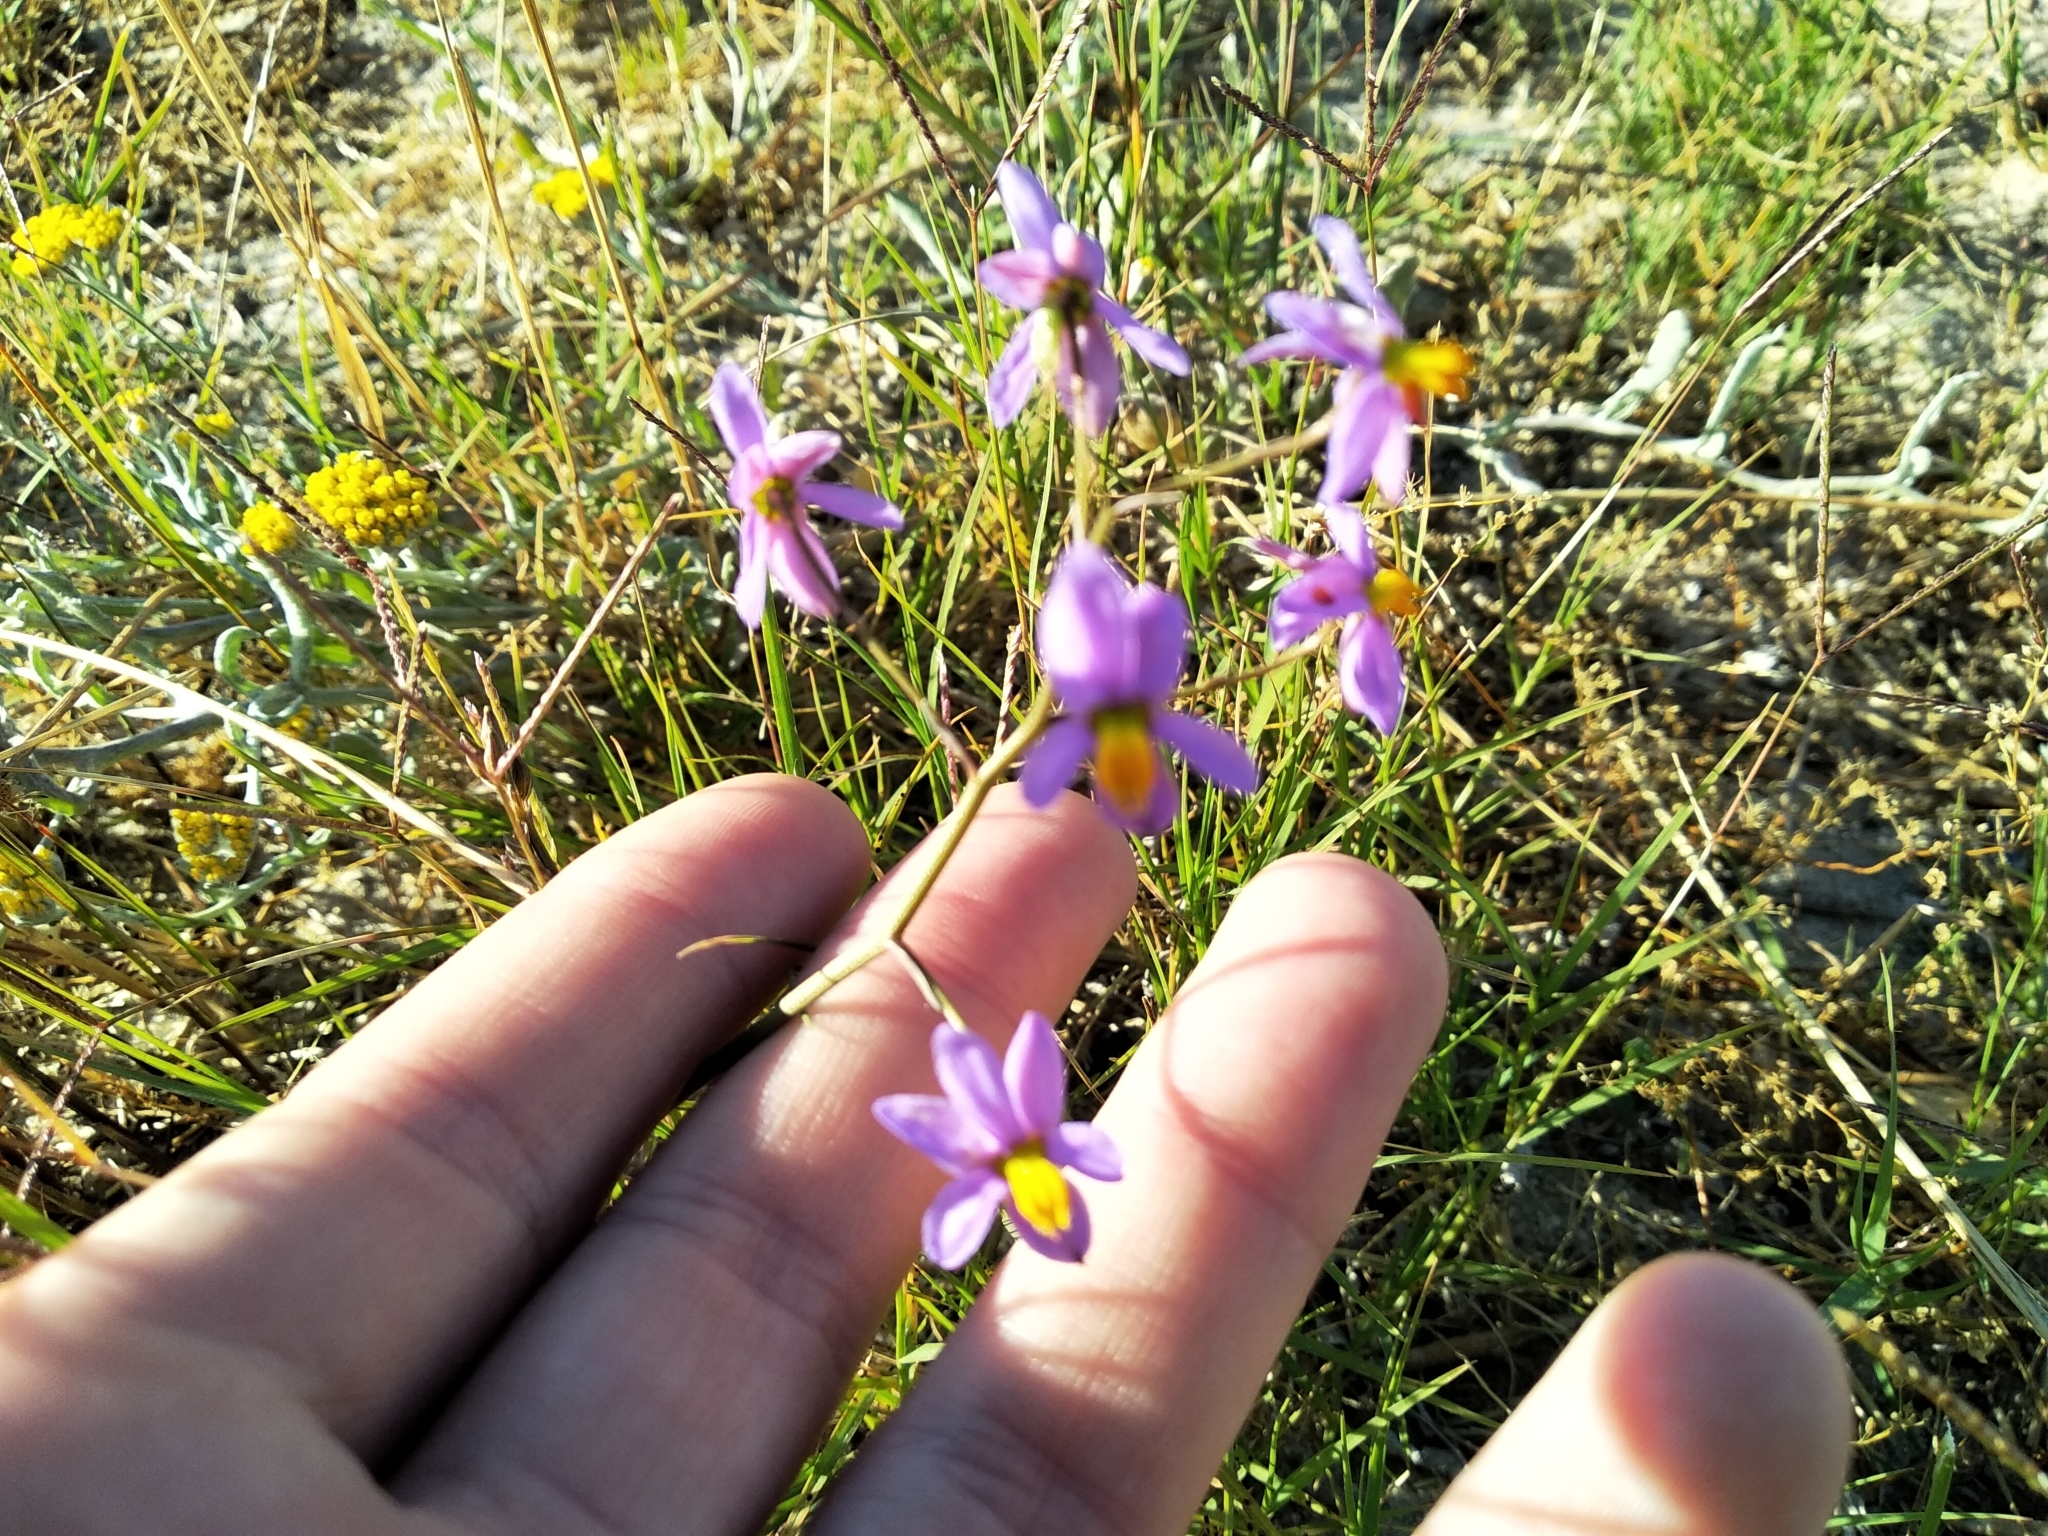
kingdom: Plantae
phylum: Tracheophyta
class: Liliopsida
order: Asparagales
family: Tecophilaeaceae
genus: Cyanella
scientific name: Cyanella hyacinthoides
